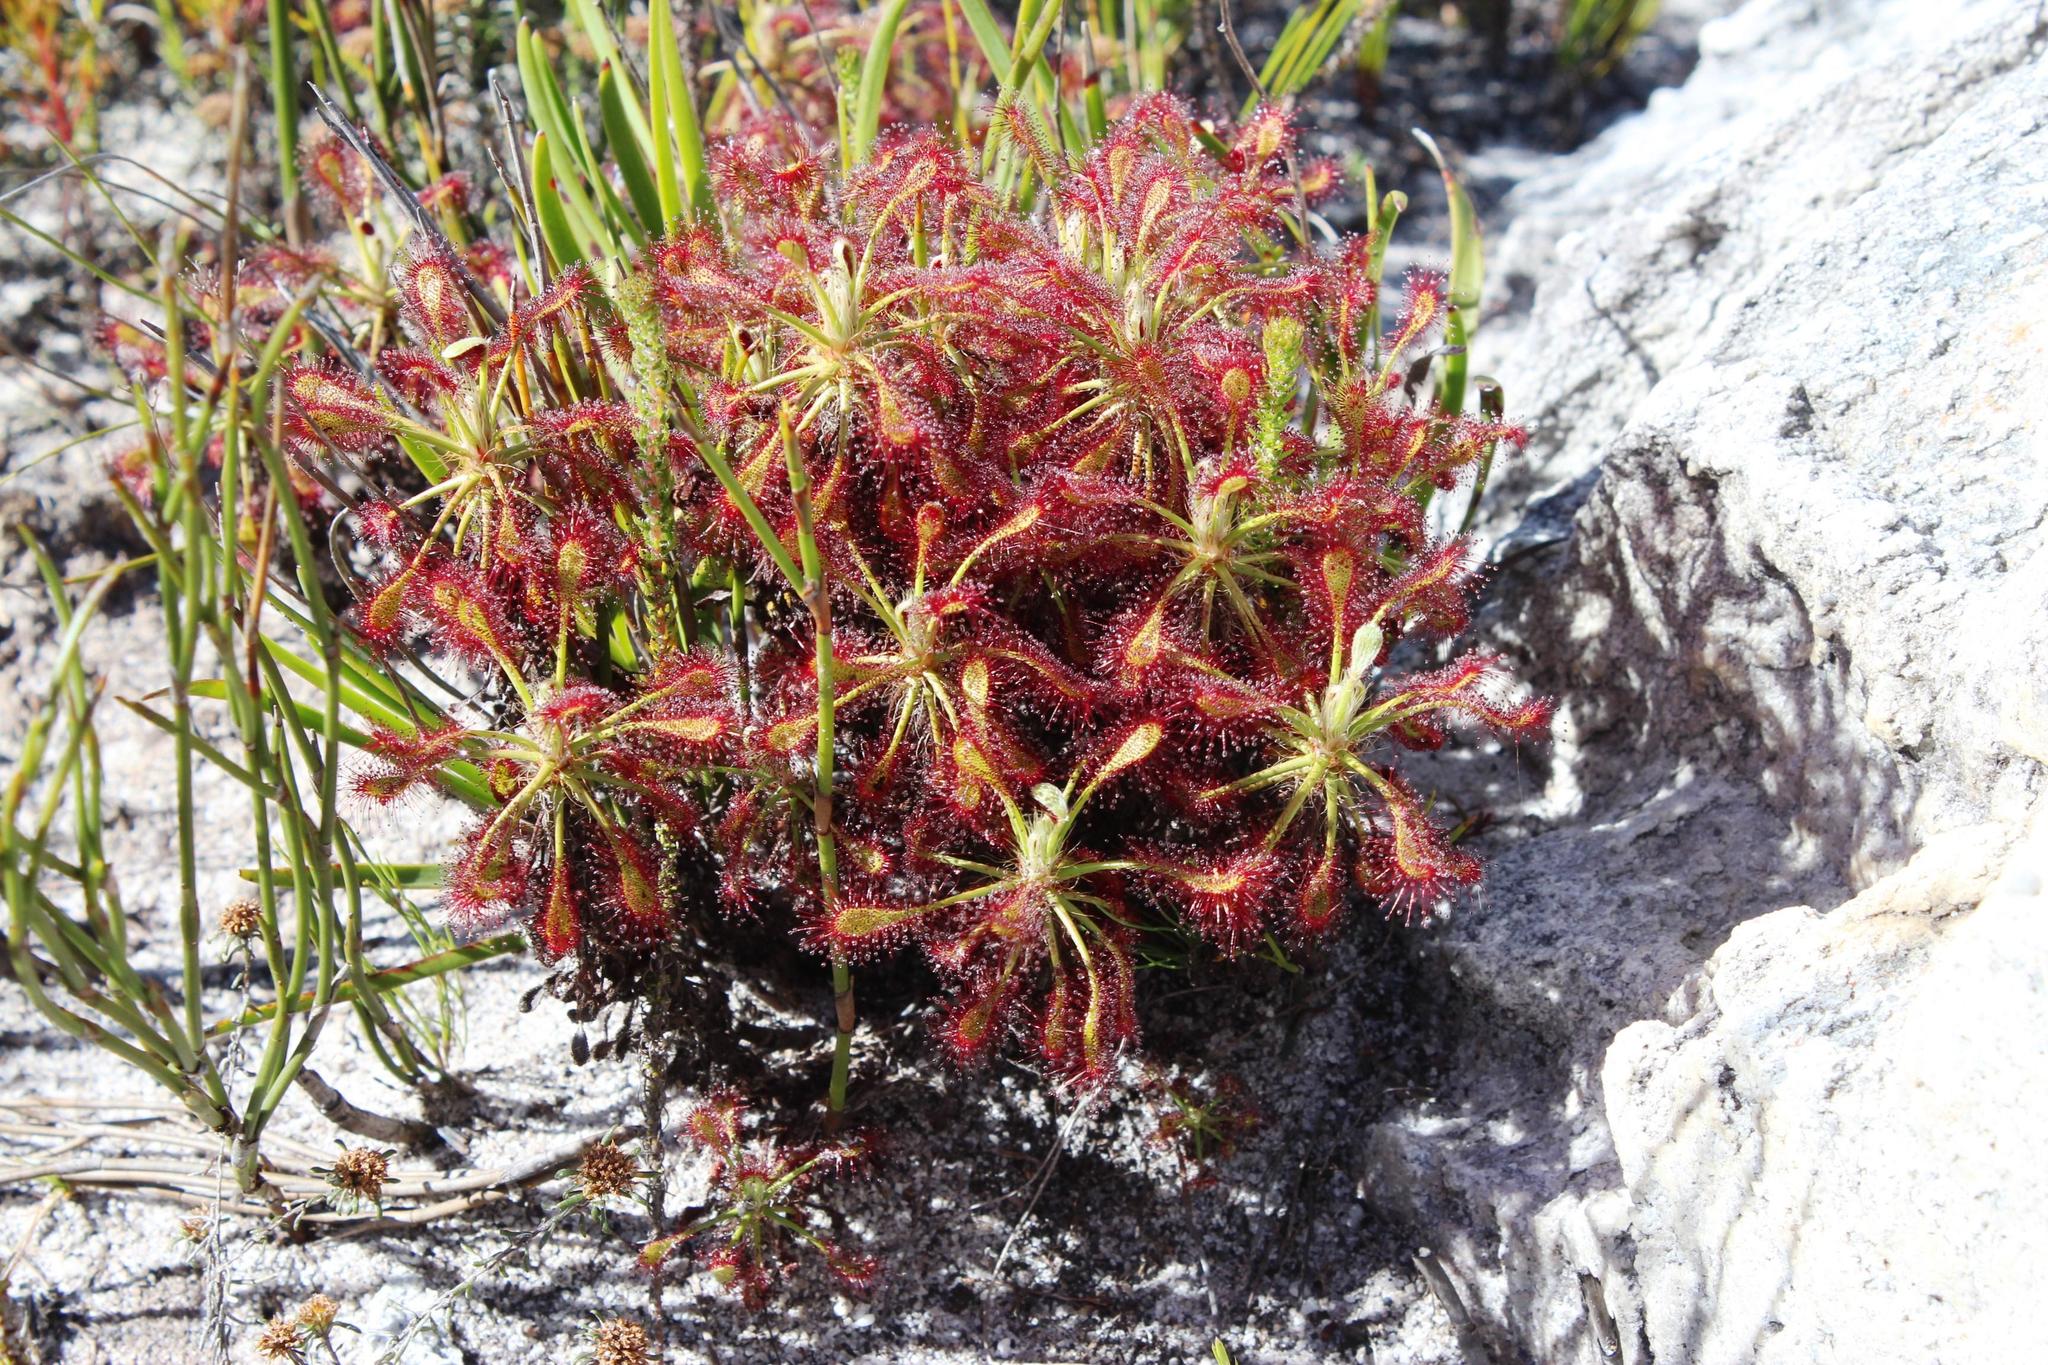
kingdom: Plantae
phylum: Tracheophyta
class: Magnoliopsida
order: Caryophyllales
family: Droseraceae
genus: Drosera
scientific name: Drosera glabripes
